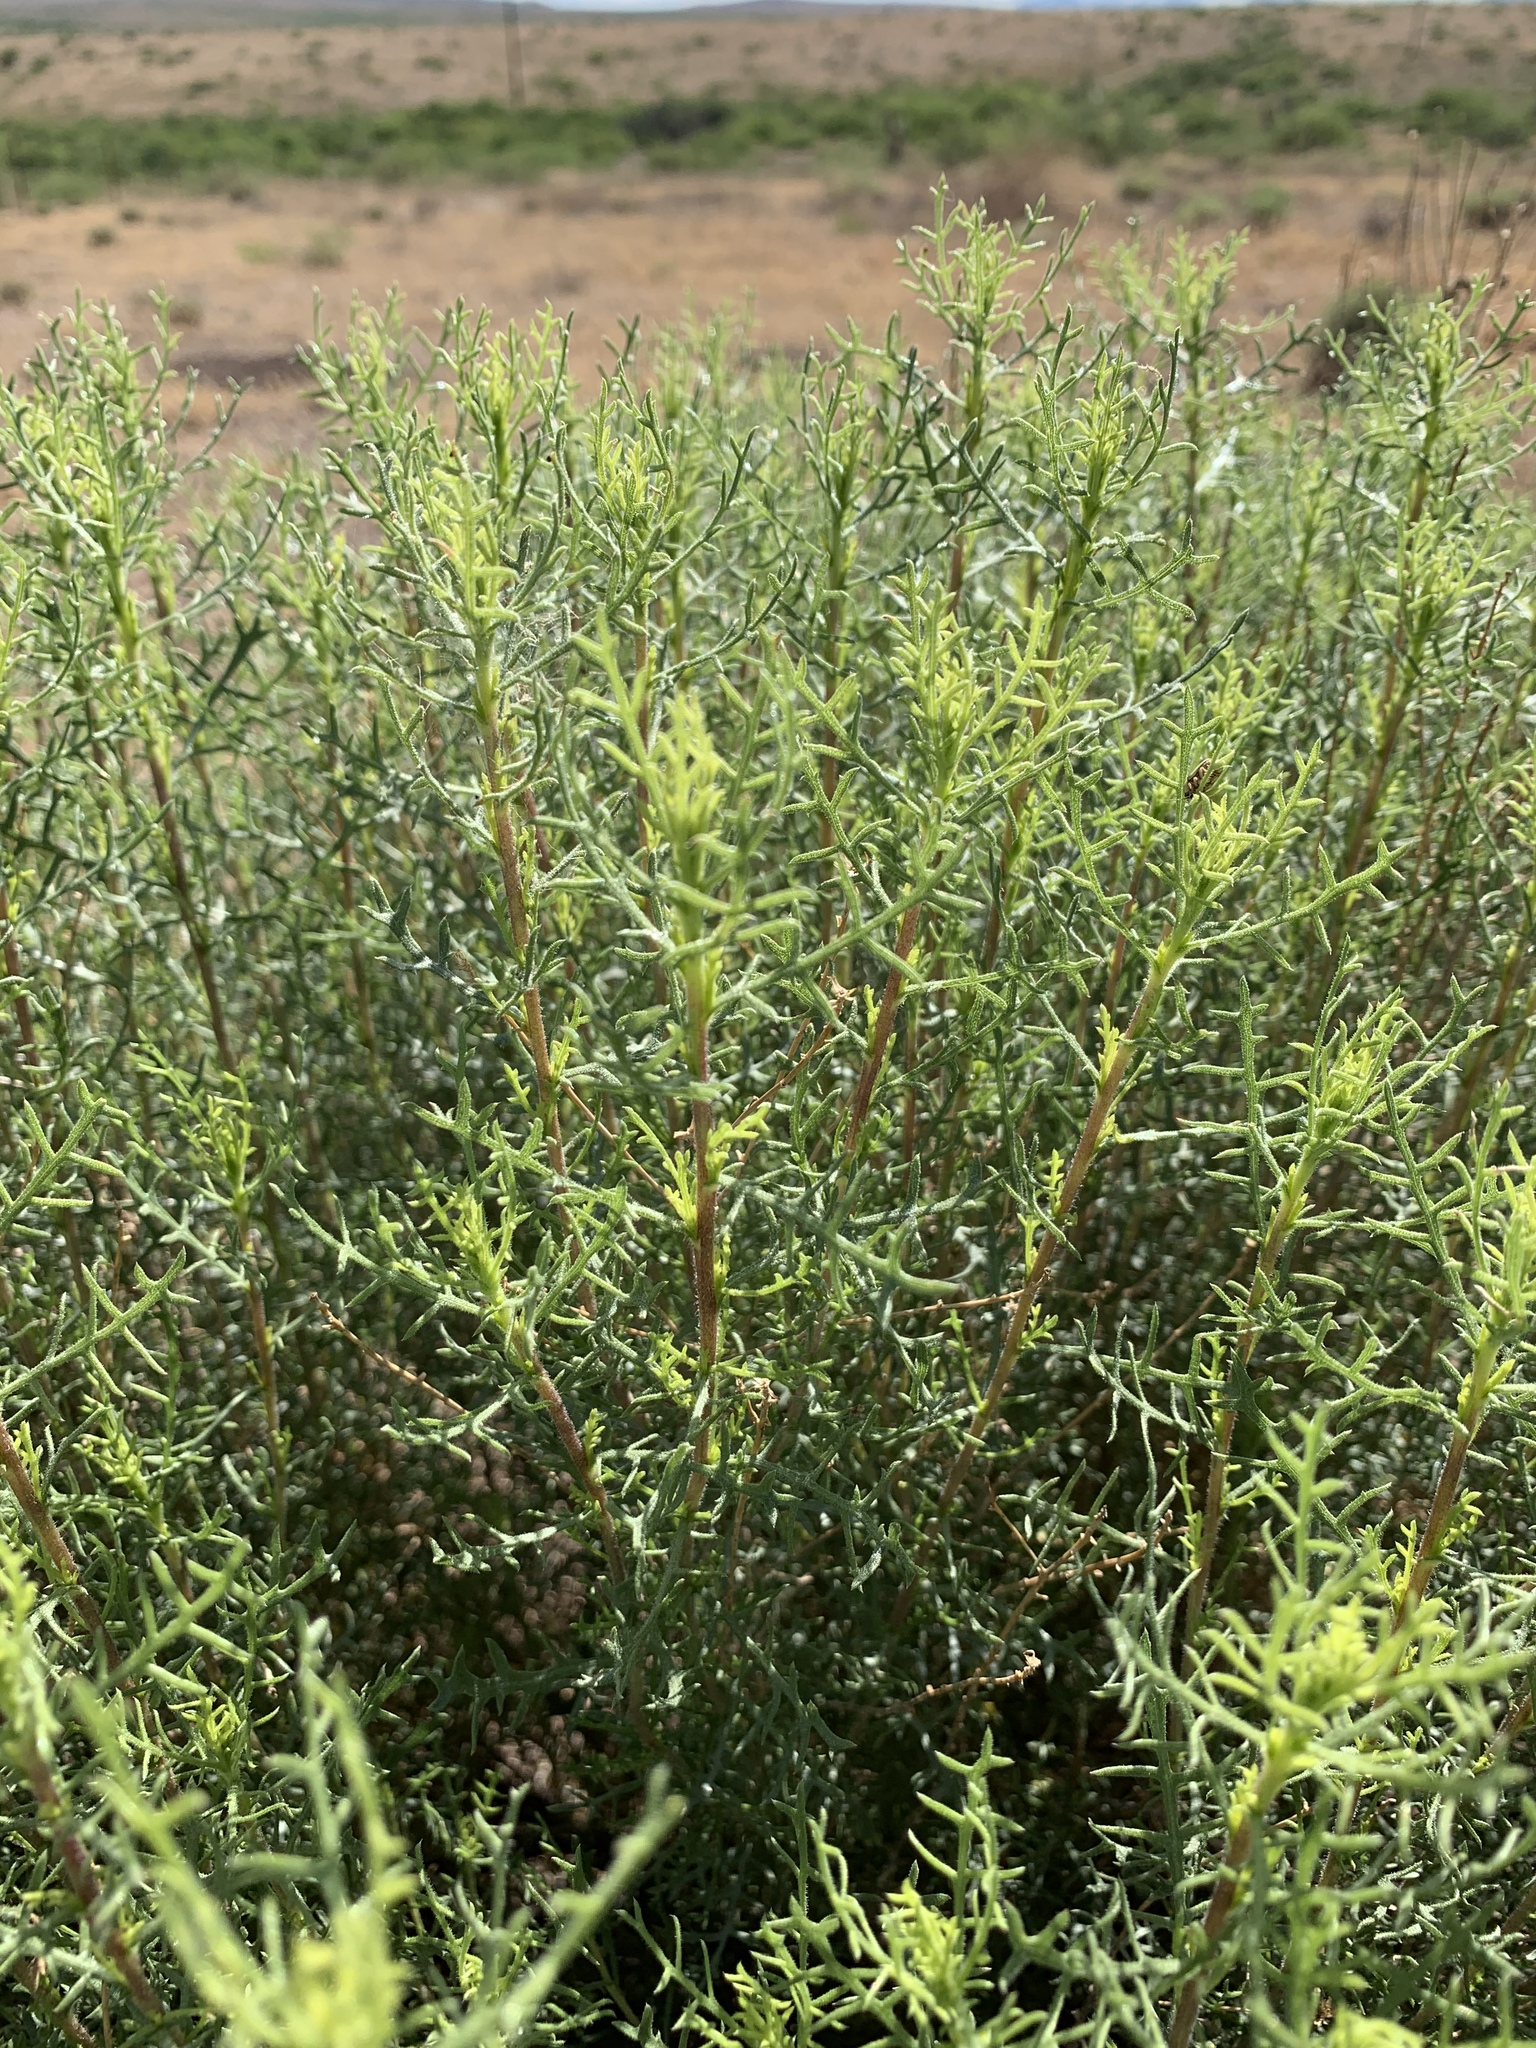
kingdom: Plantae
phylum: Tracheophyta
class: Magnoliopsida
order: Asterales
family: Asteraceae
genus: Isocoma
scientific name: Isocoma tenuisecta
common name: Burroweed
